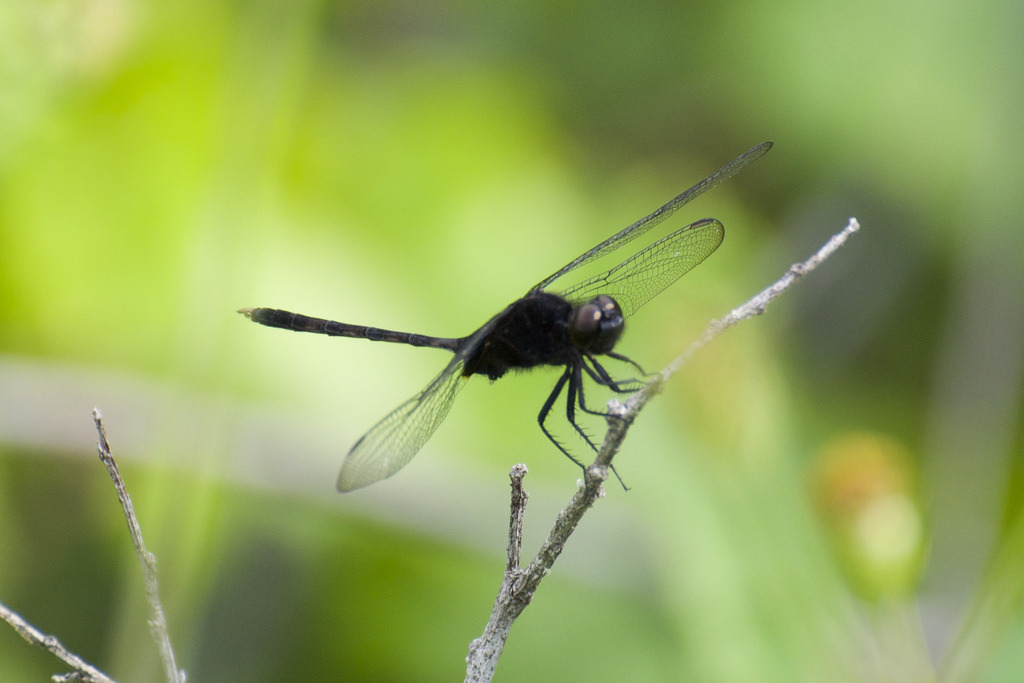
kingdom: Animalia
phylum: Arthropoda
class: Insecta
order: Odonata
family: Libellulidae
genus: Erythemis
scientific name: Erythemis plebeja
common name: Pin-tailed pondhawk
